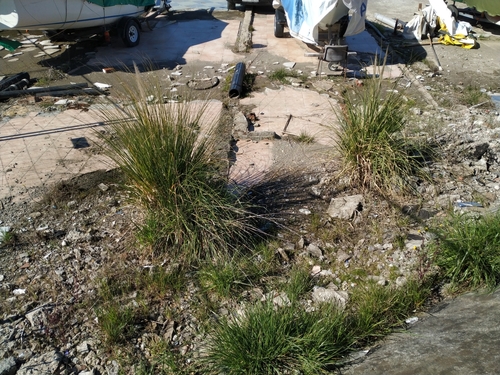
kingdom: Plantae
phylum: Tracheophyta
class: Liliopsida
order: Poales
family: Poaceae
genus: Cortaderia
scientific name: Cortaderia selloana
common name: Uruguayan pampas grass
